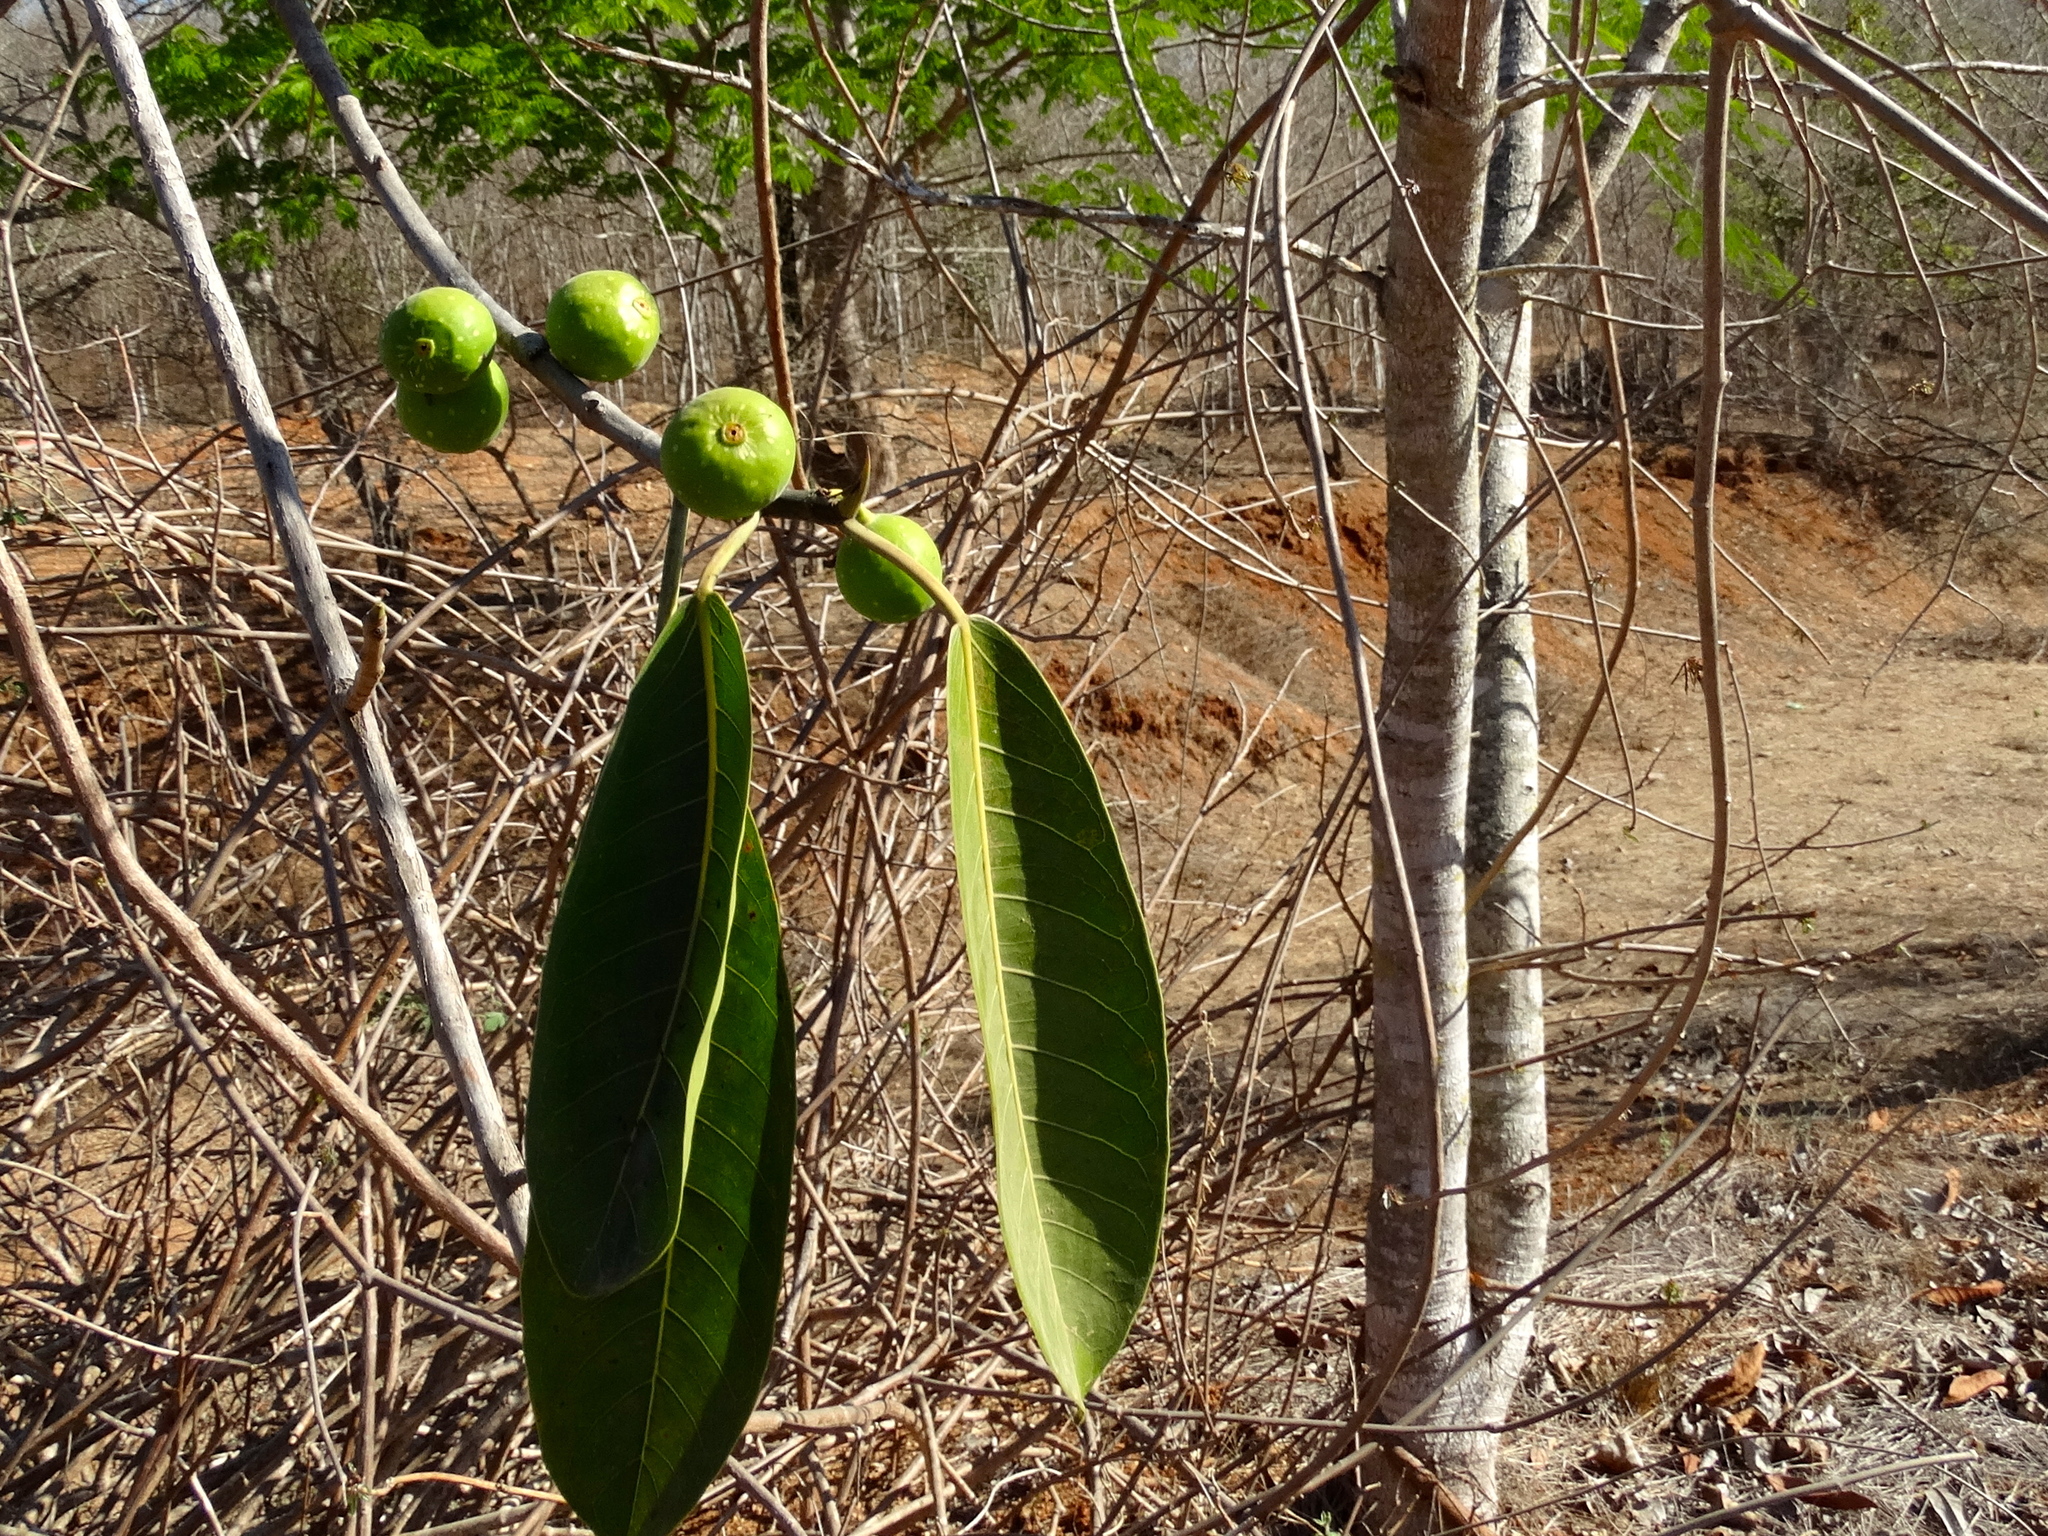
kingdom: Plantae
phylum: Tracheophyta
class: Magnoliopsida
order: Rosales
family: Moraceae
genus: Ficus
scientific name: Ficus crocata
